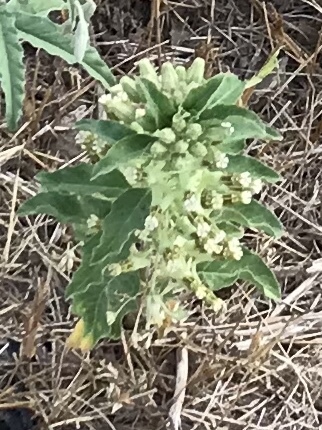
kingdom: Plantae
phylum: Tracheophyta
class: Magnoliopsida
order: Gentianales
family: Apocynaceae
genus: Asclepias
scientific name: Asclepias oenotheroides
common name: Zizotes milkweed
